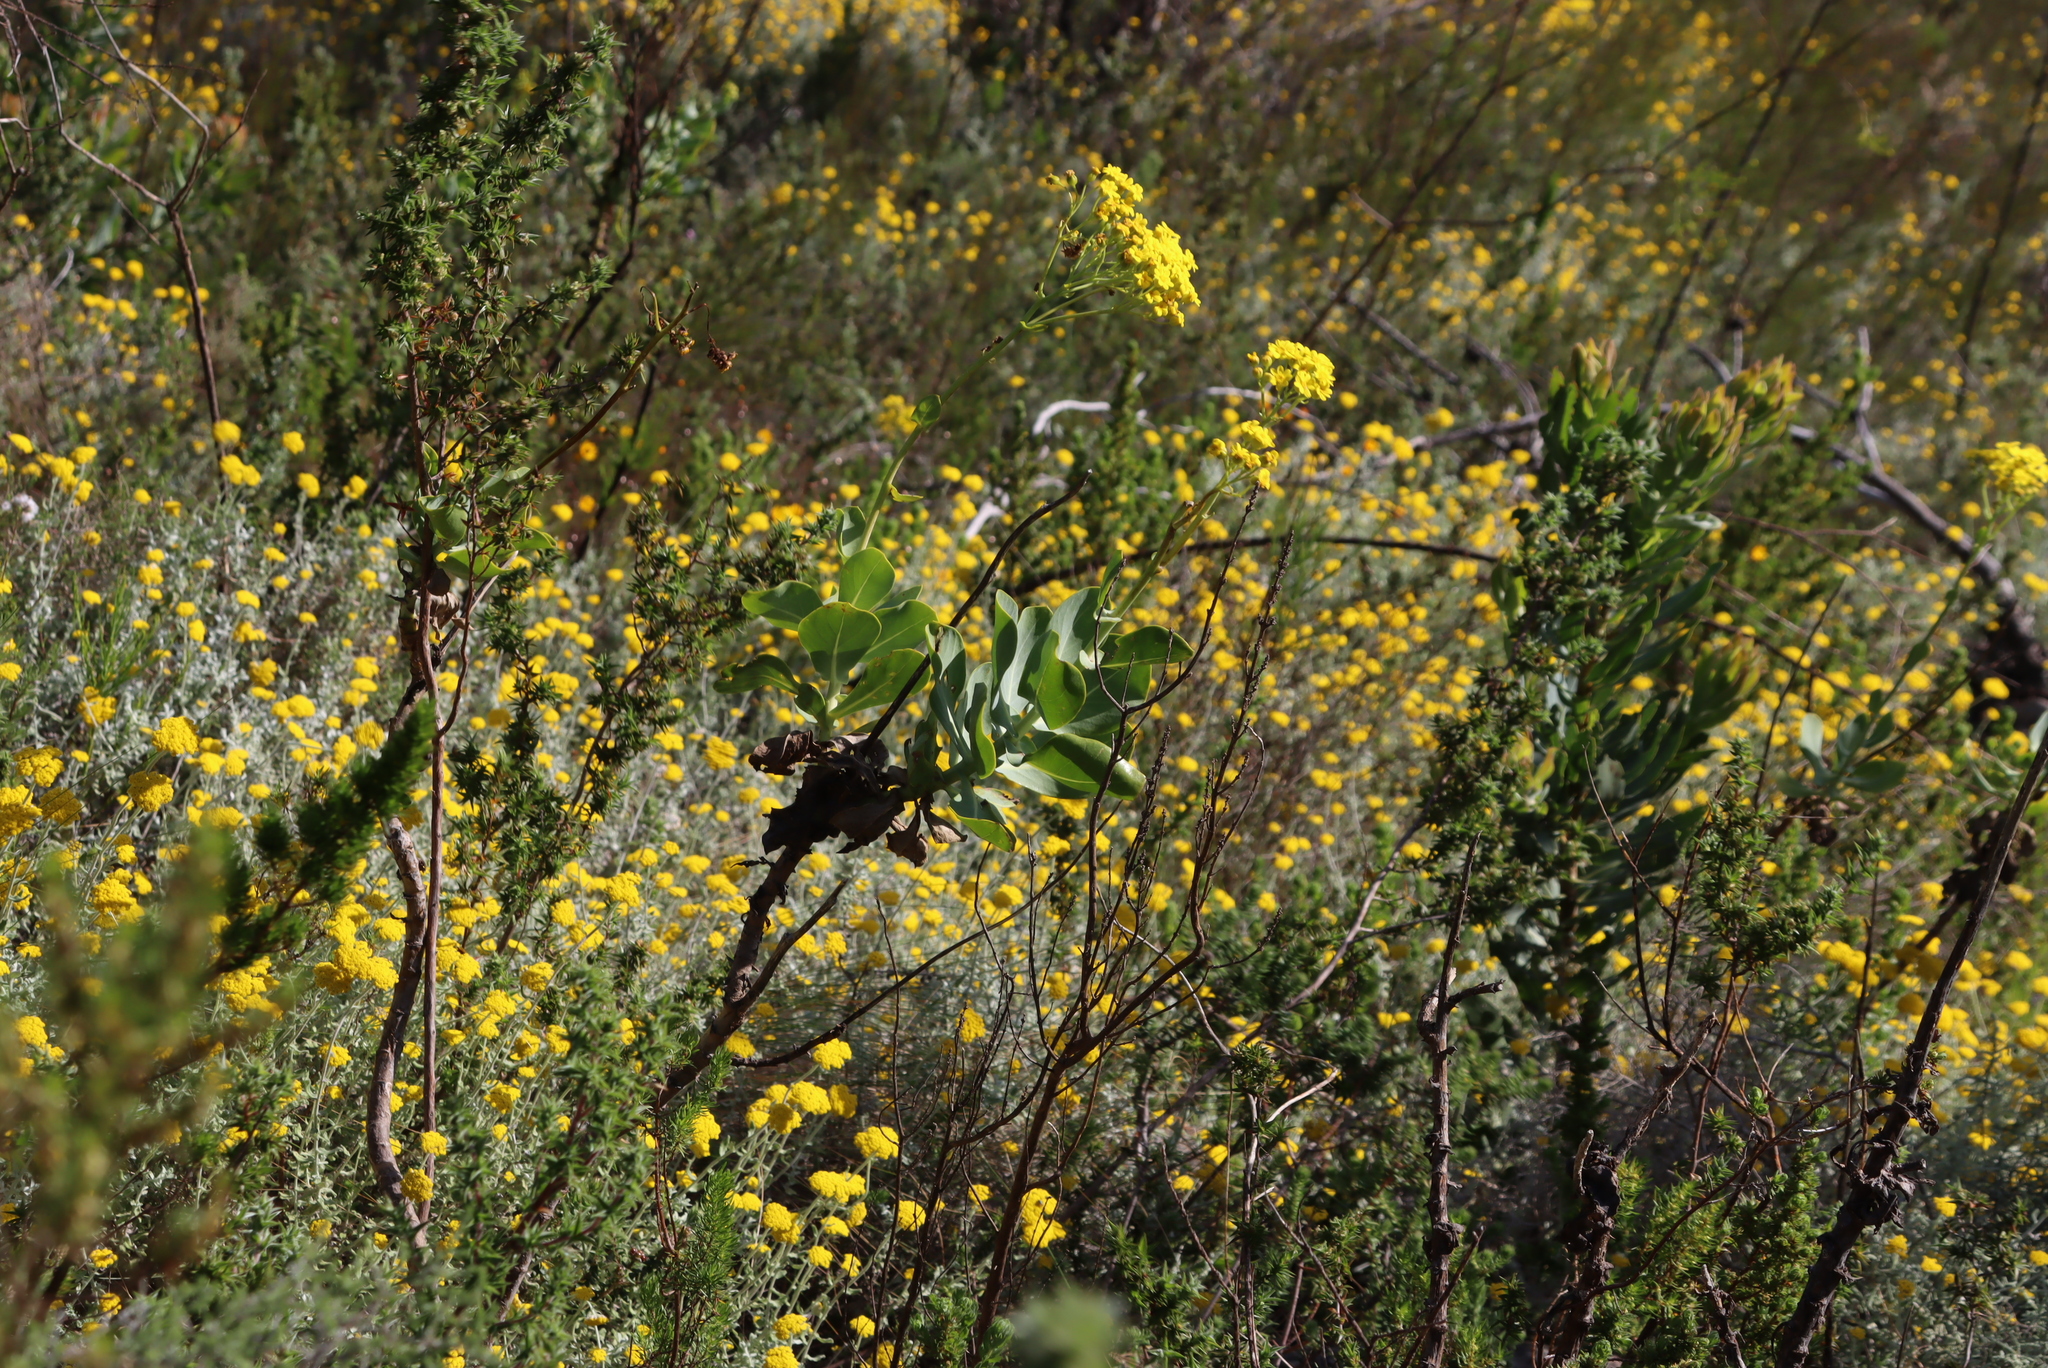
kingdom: Plantae
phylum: Tracheophyta
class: Magnoliopsida
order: Asterales
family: Asteraceae
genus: Othonna
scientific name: Othonna parviflora
